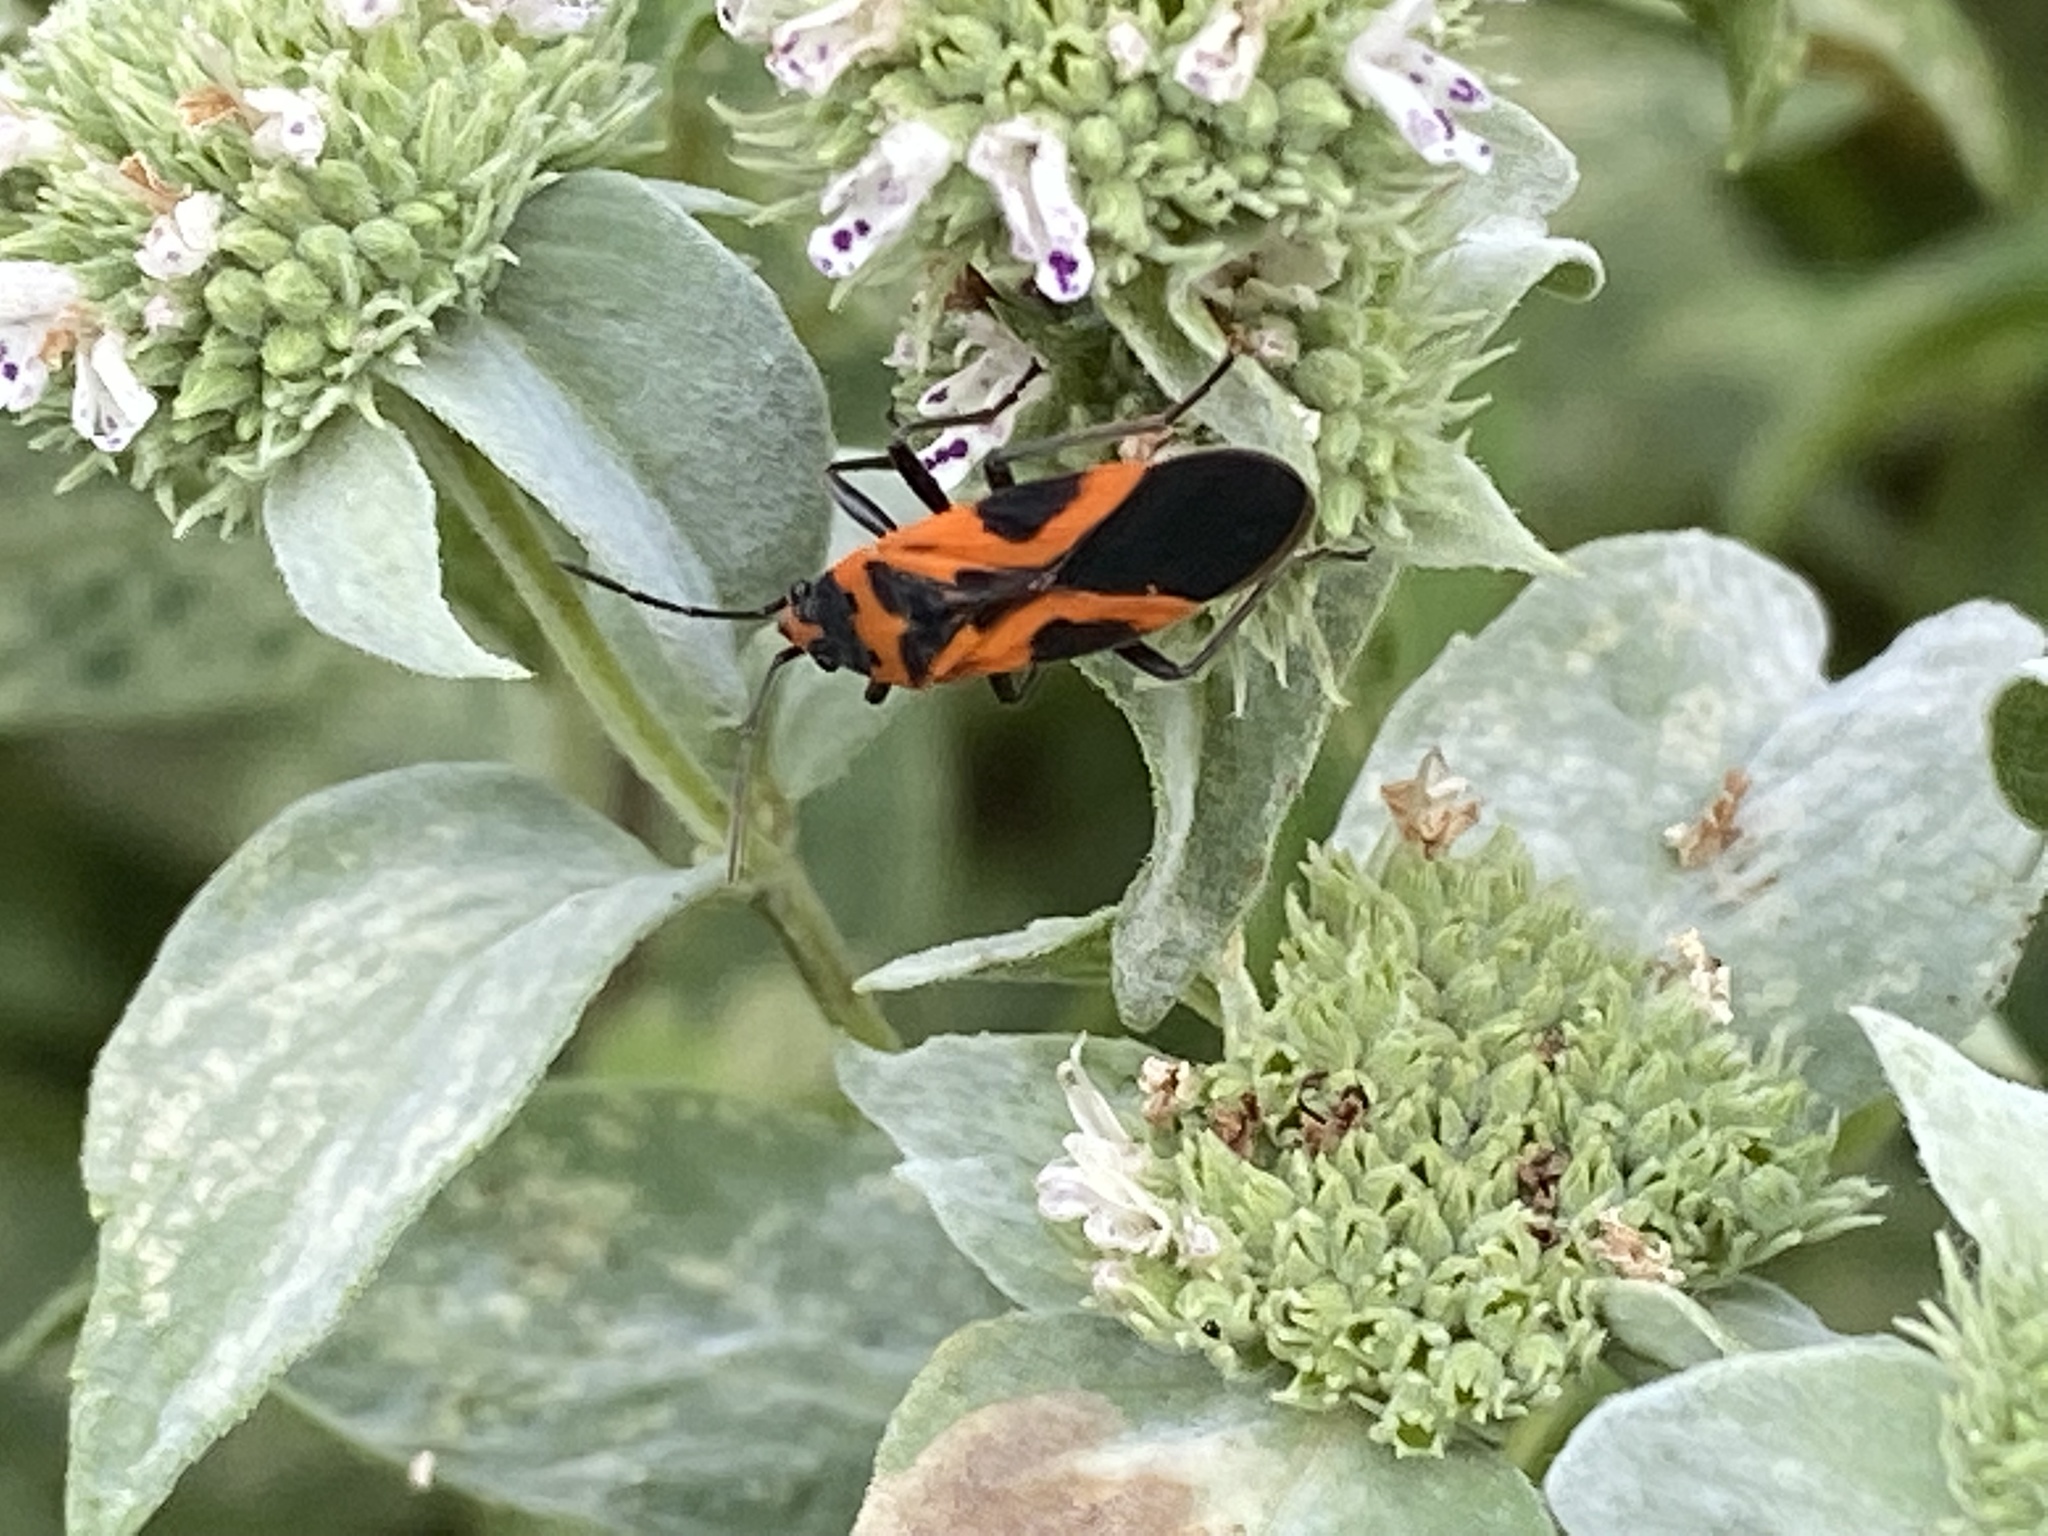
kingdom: Animalia
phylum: Arthropoda
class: Insecta
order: Hemiptera
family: Lygaeidae
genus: Lygaeus
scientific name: Lygaeus turcicus
